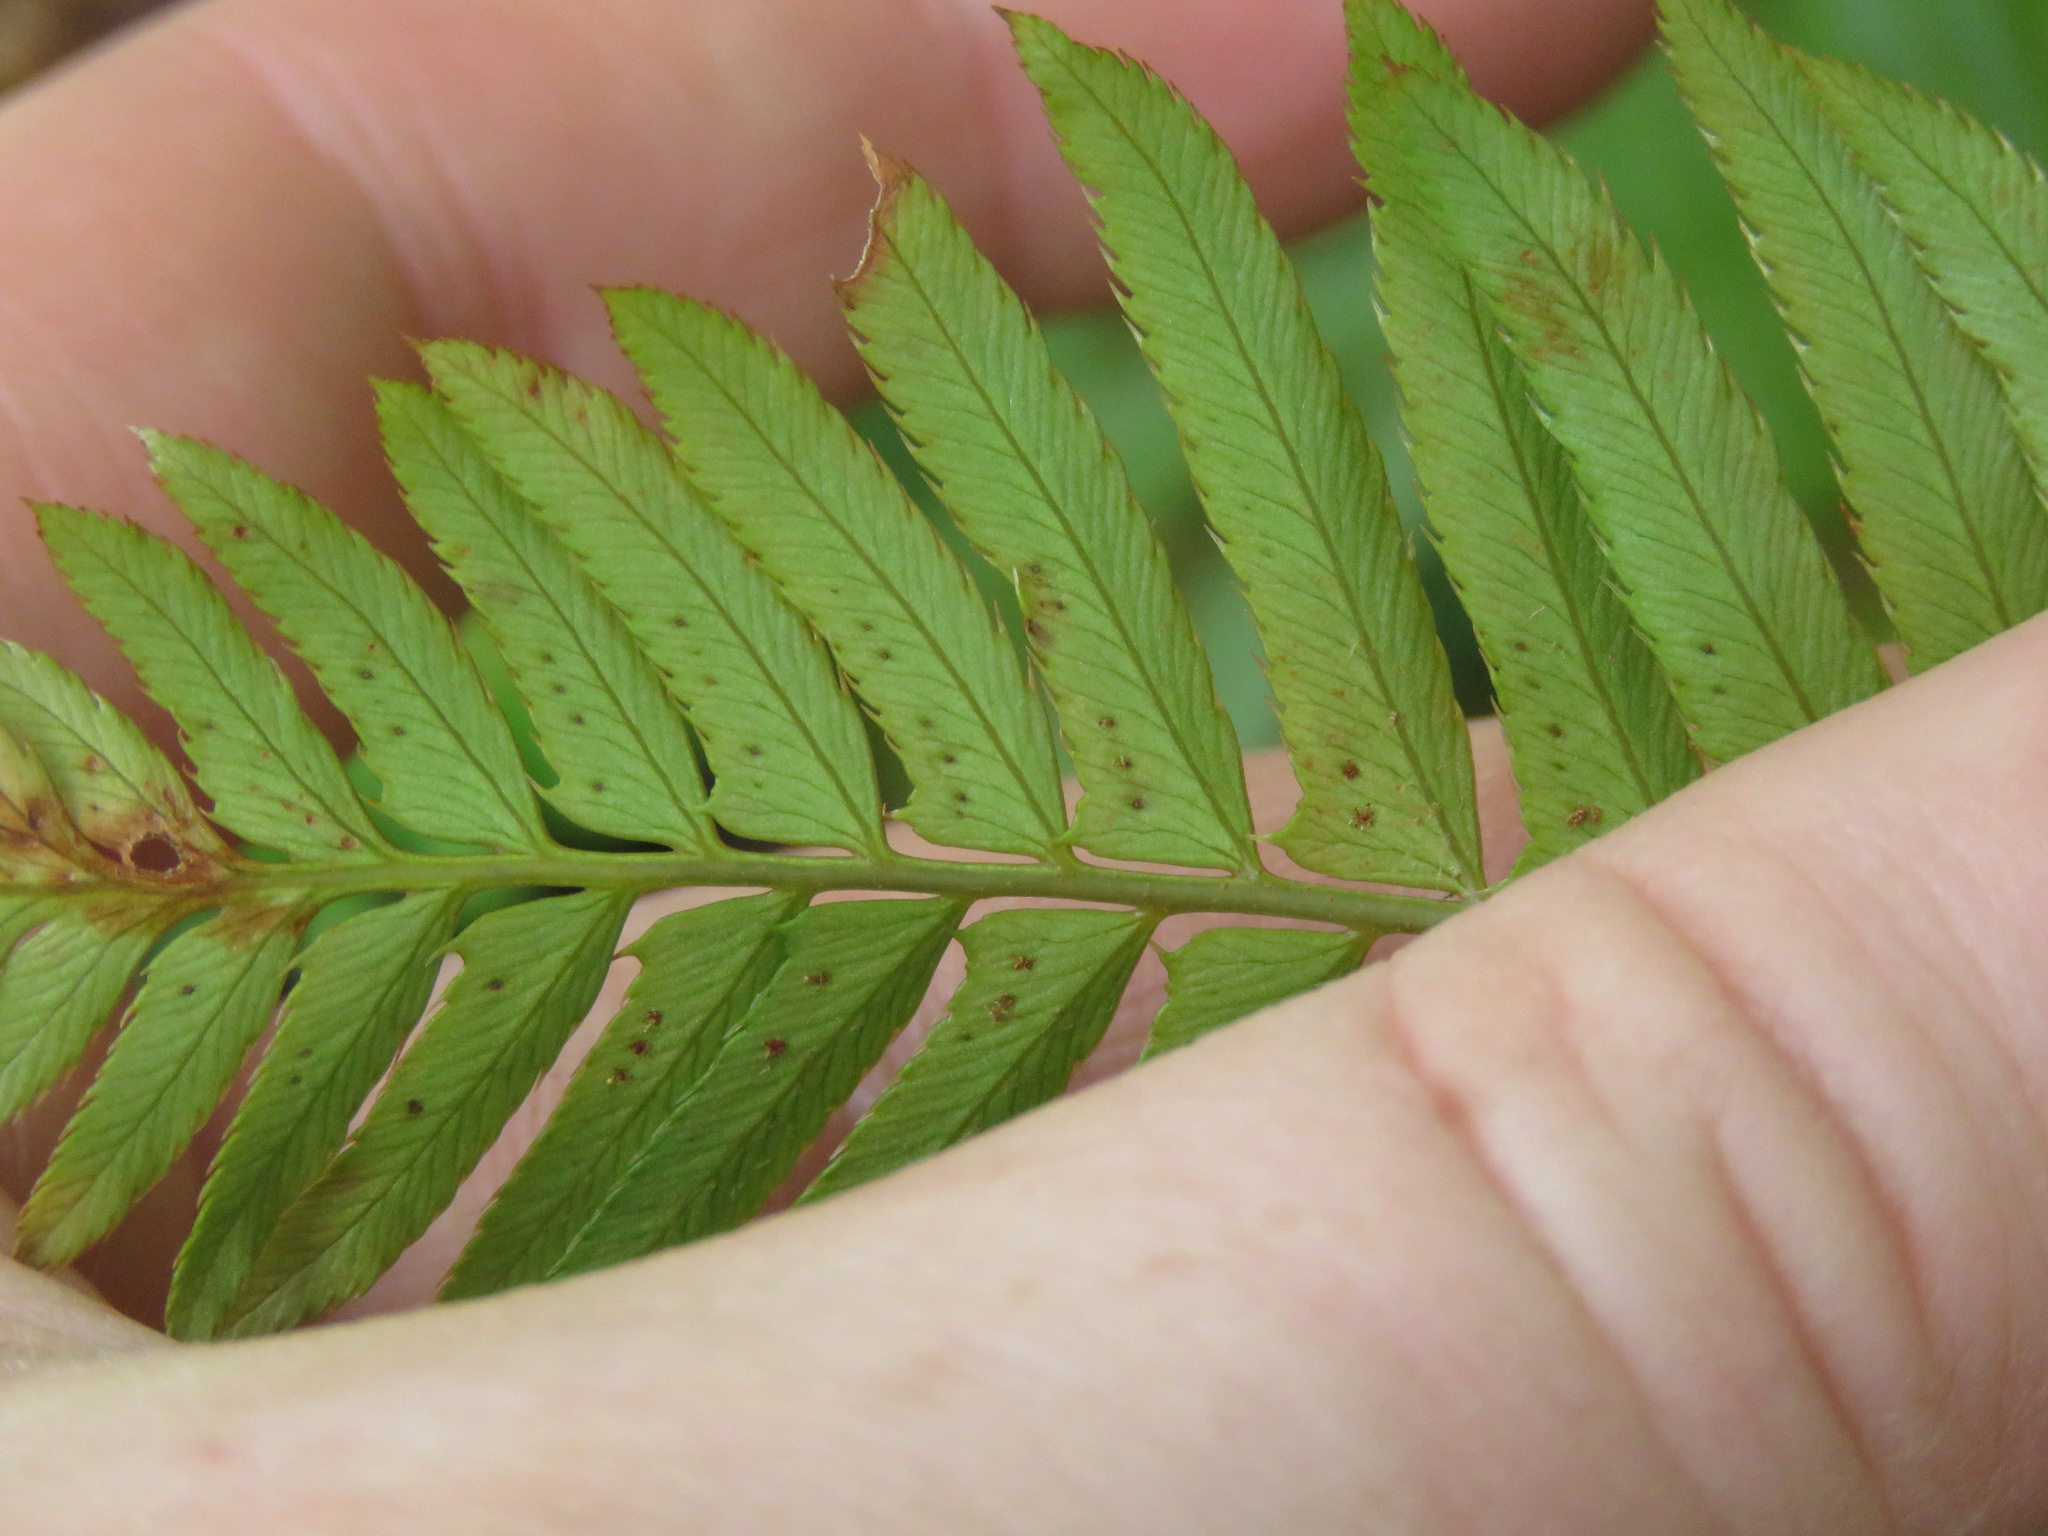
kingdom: Plantae
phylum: Tracheophyta
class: Polypodiopsida
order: Polypodiales
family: Dryopteridaceae
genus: Polystichum
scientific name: Polystichum munitum
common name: Western sword-fern
